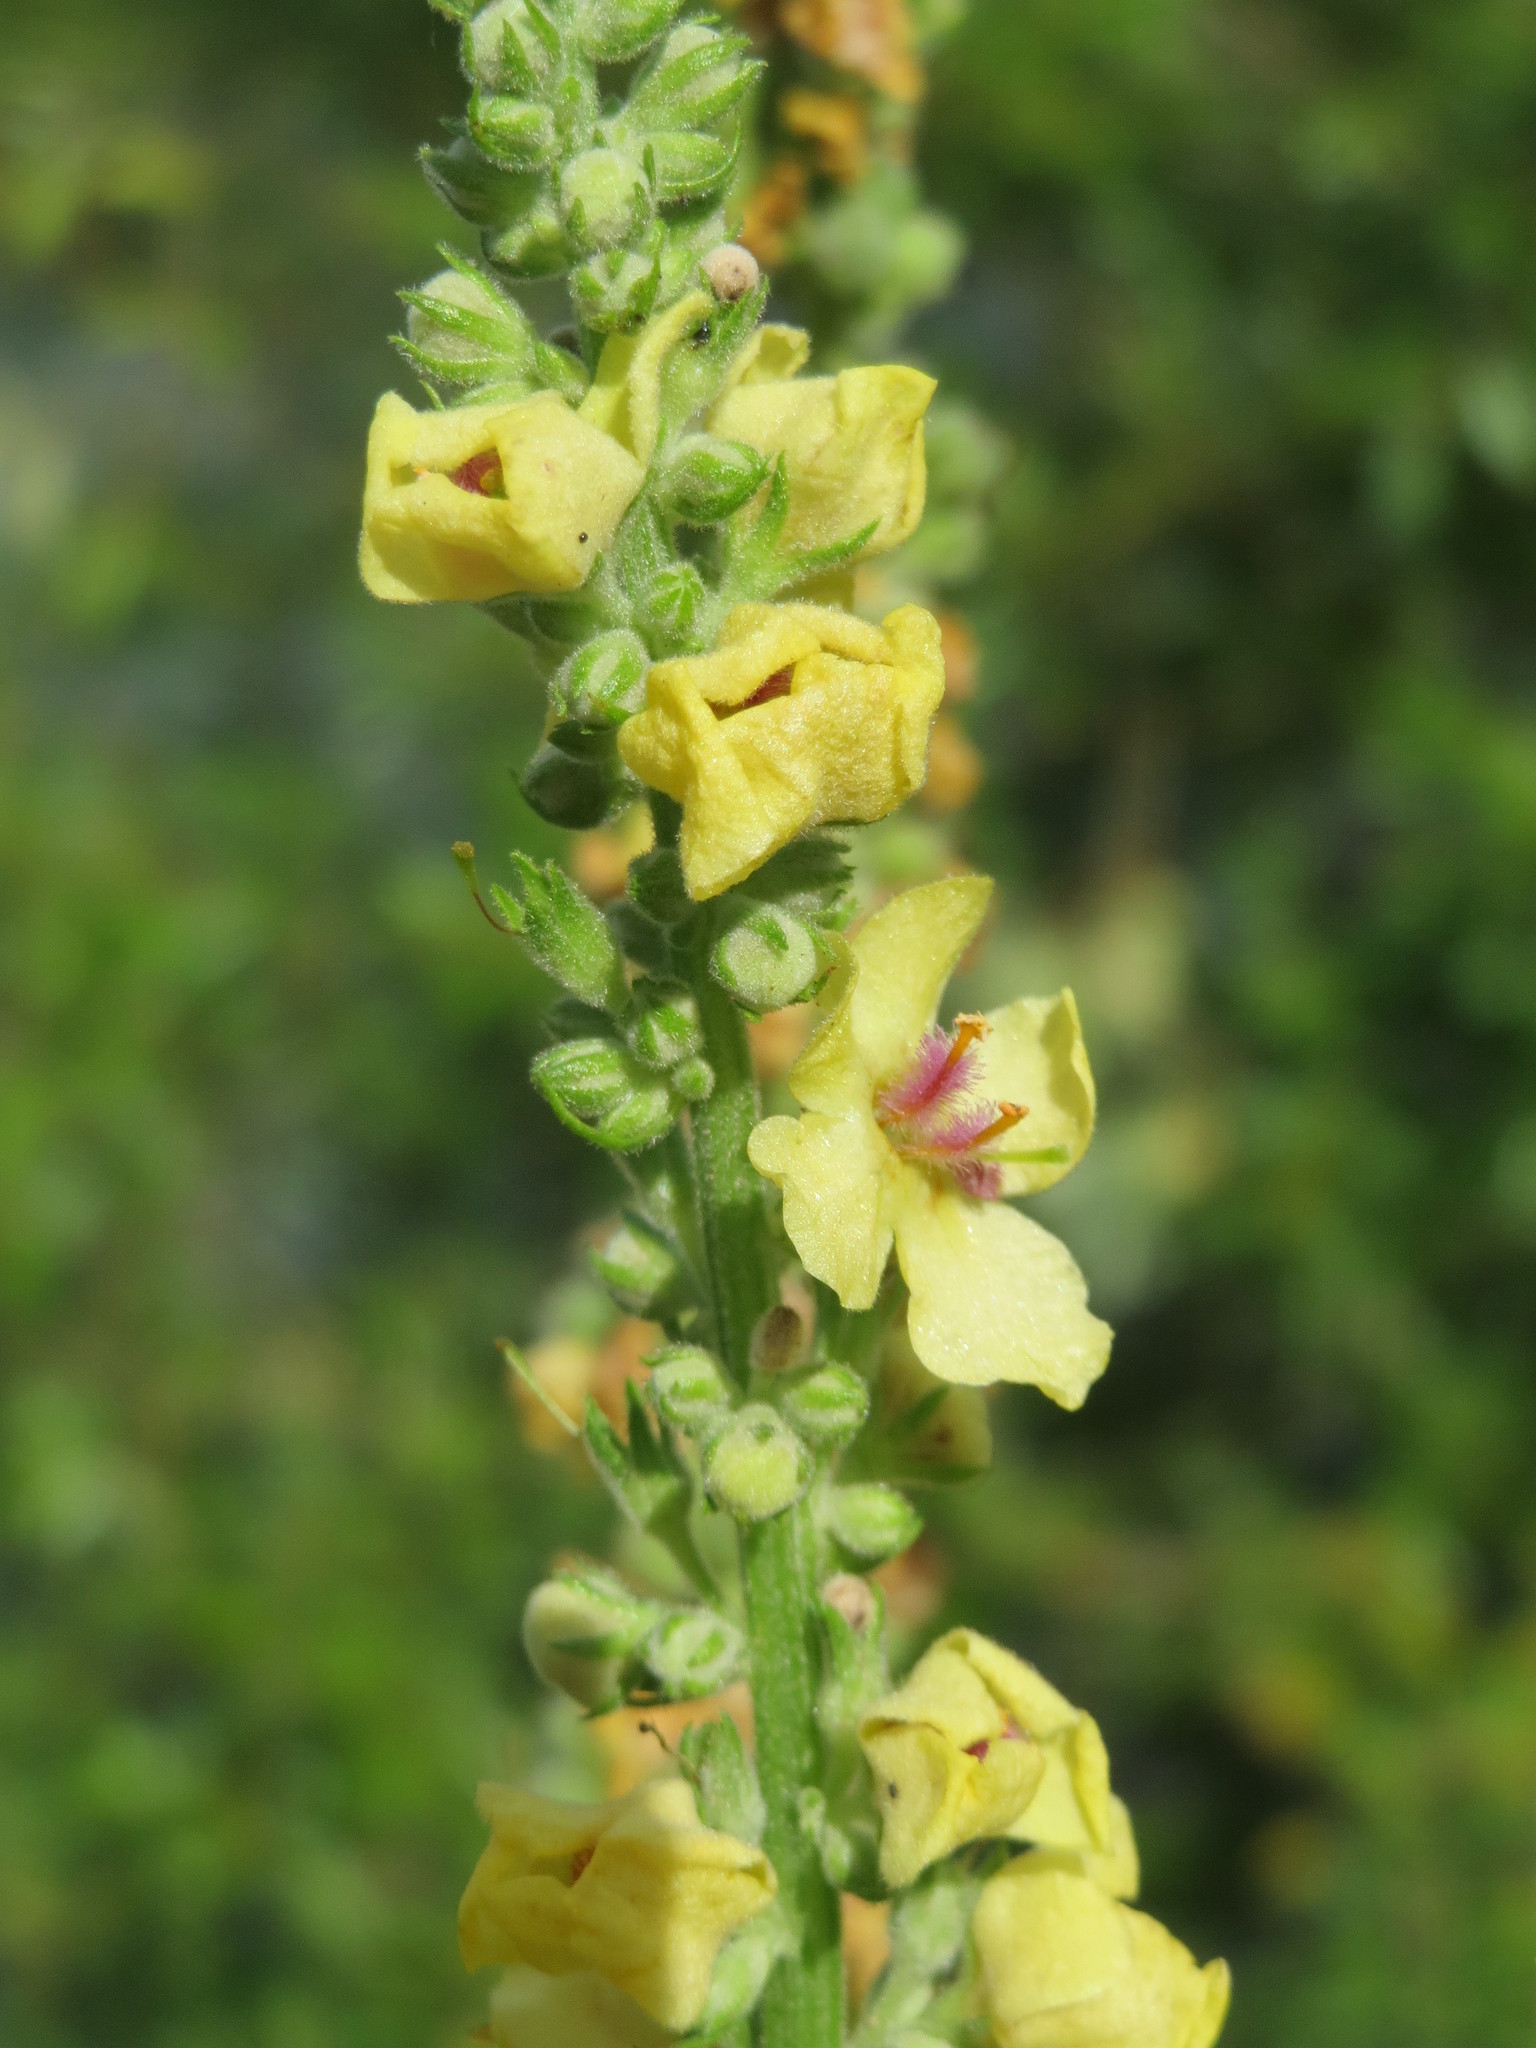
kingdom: Plantae
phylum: Tracheophyta
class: Magnoliopsida
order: Lamiales
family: Scrophulariaceae
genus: Verbascum
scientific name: Verbascum nigrum
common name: Dark mullein
